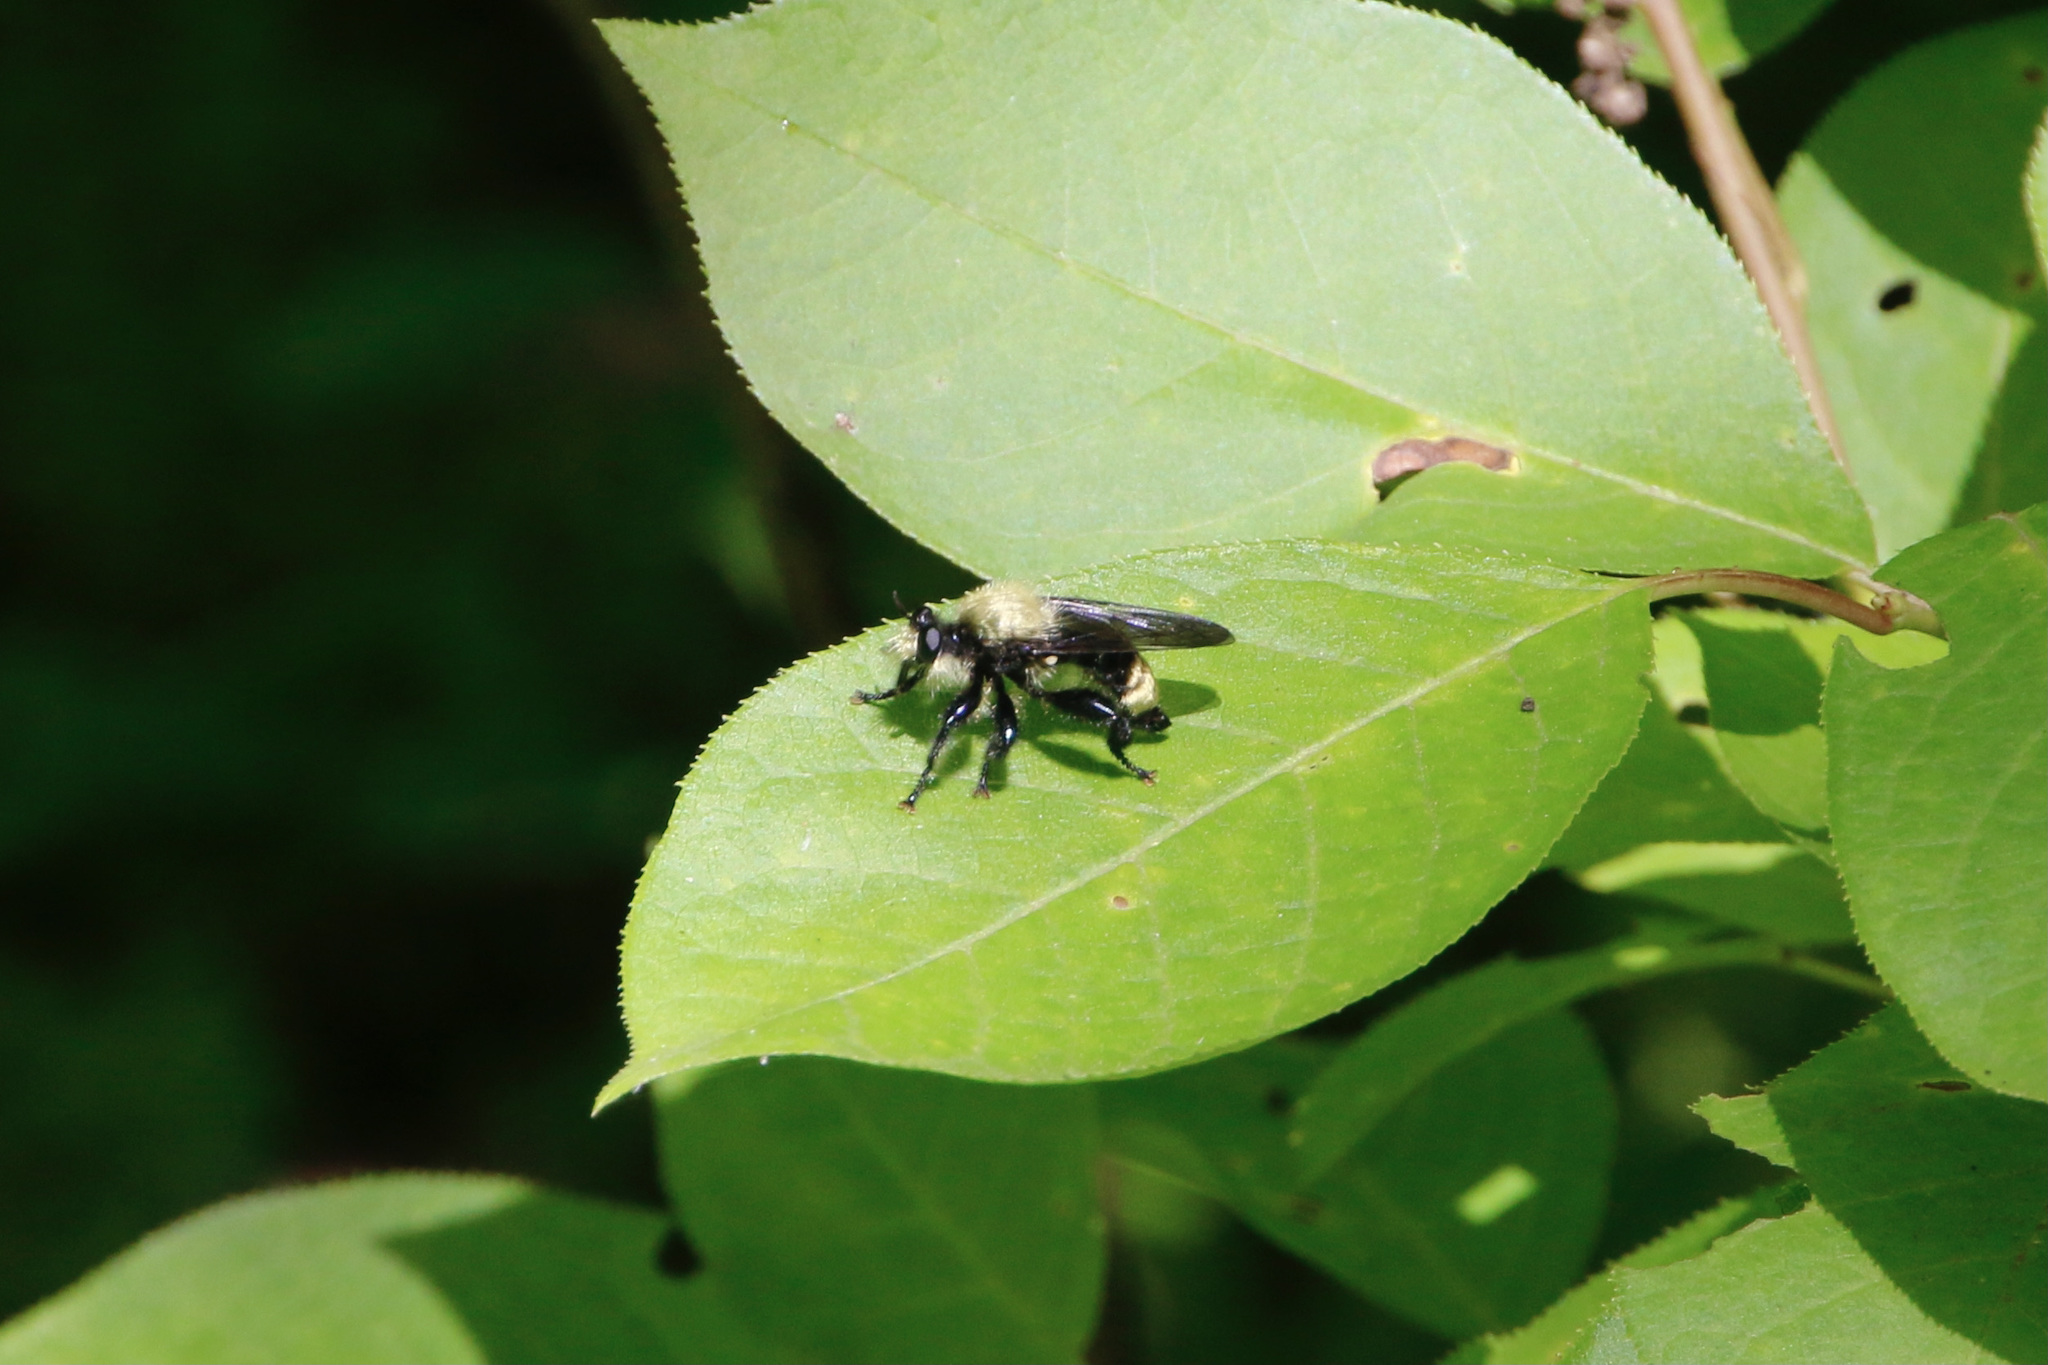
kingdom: Animalia
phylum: Arthropoda
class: Insecta
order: Diptera
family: Asilidae
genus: Laphria
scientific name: Laphria divisor
